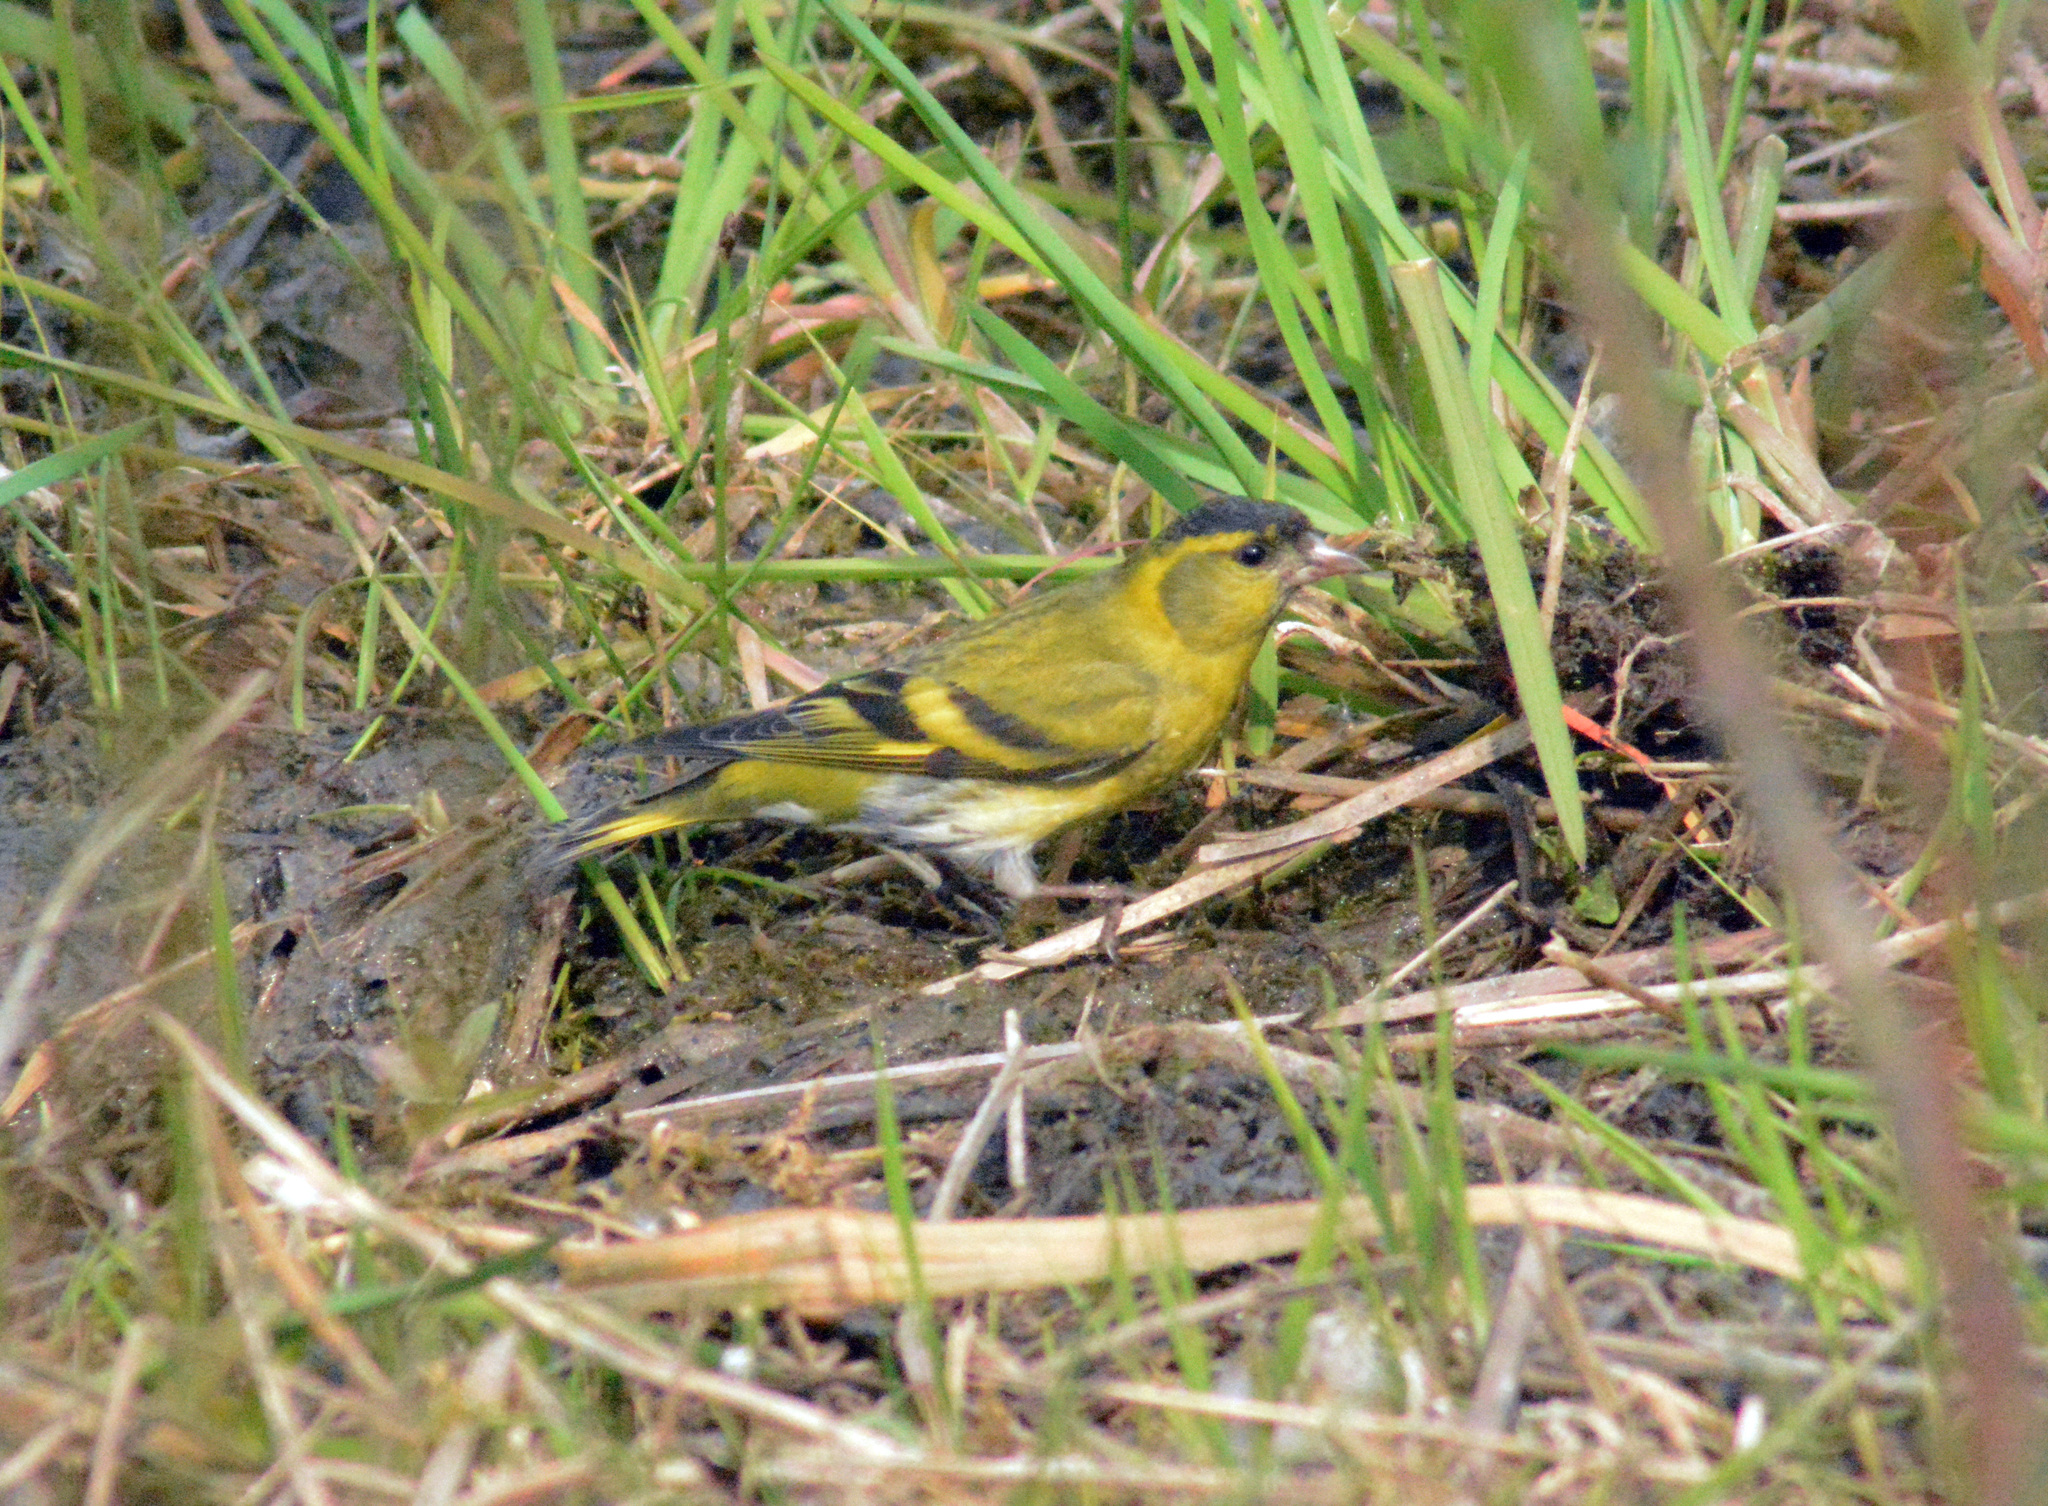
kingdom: Animalia
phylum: Chordata
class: Aves
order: Passeriformes
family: Fringillidae
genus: Spinus
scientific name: Spinus spinus
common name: Eurasian siskin
